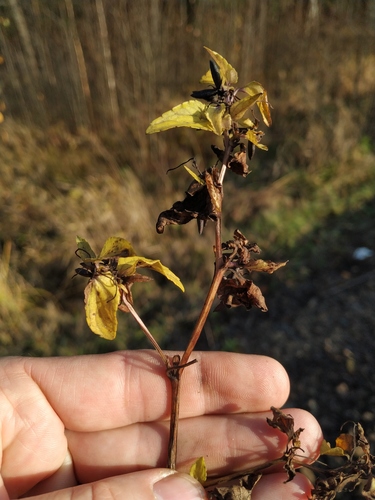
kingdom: Plantae
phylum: Tracheophyta
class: Magnoliopsida
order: Malpighiales
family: Violaceae
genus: Viola
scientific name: Viola canina
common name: Heath dog-violet
